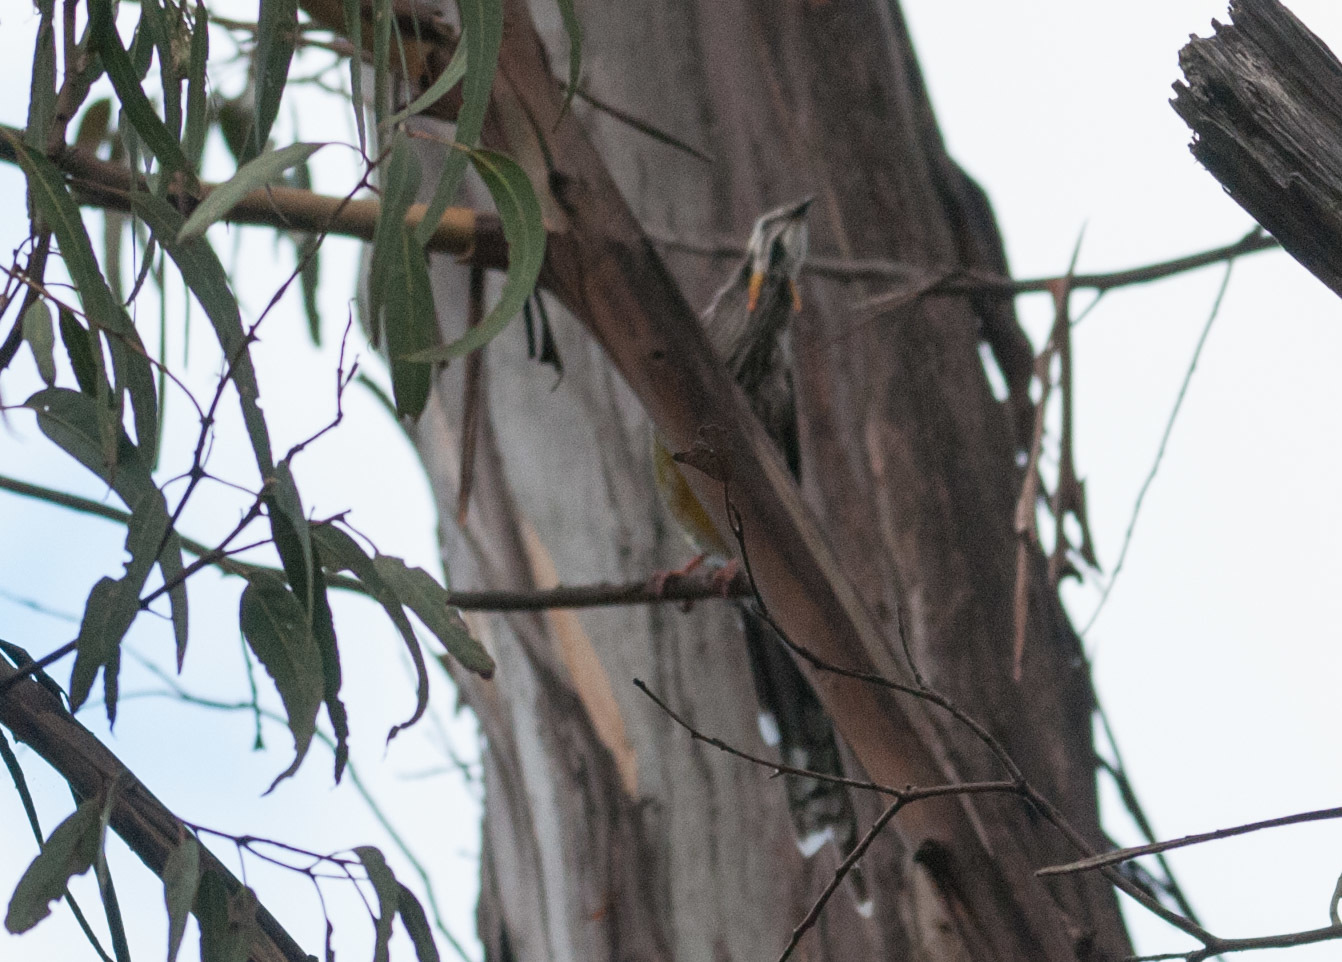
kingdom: Animalia
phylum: Chordata
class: Aves
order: Passeriformes
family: Meliphagidae
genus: Anthochaera
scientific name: Anthochaera paradoxa
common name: Yellow wattlebird
